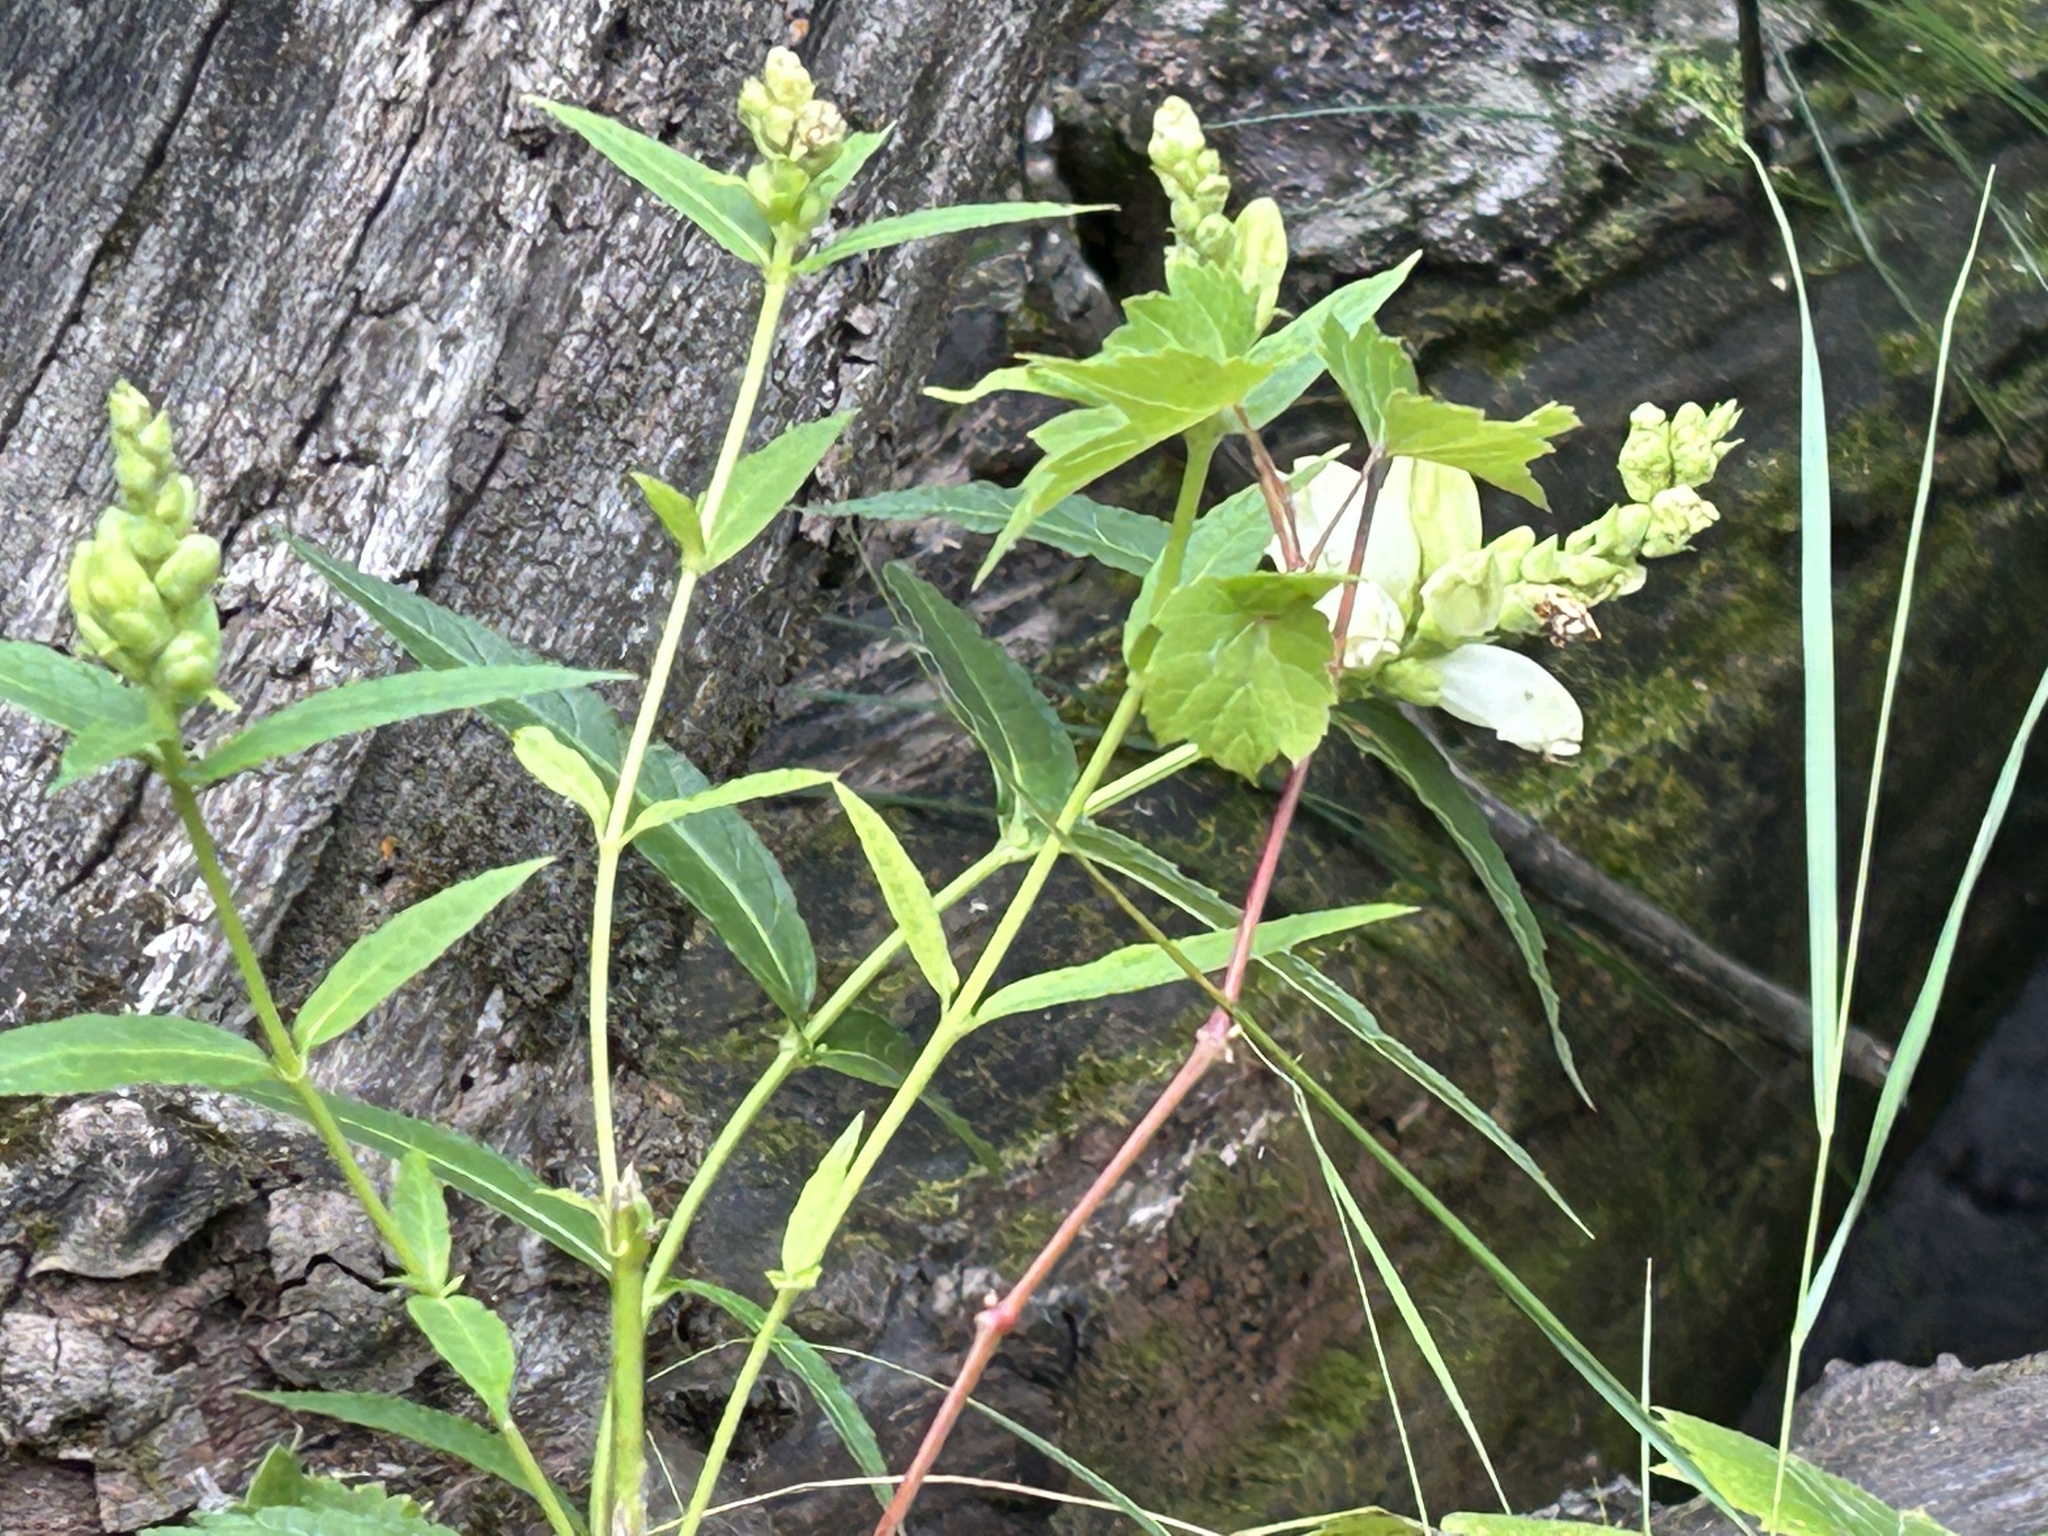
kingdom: Plantae
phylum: Tracheophyta
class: Magnoliopsida
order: Lamiales
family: Plantaginaceae
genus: Chelone
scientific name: Chelone glabra
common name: Snakehead
